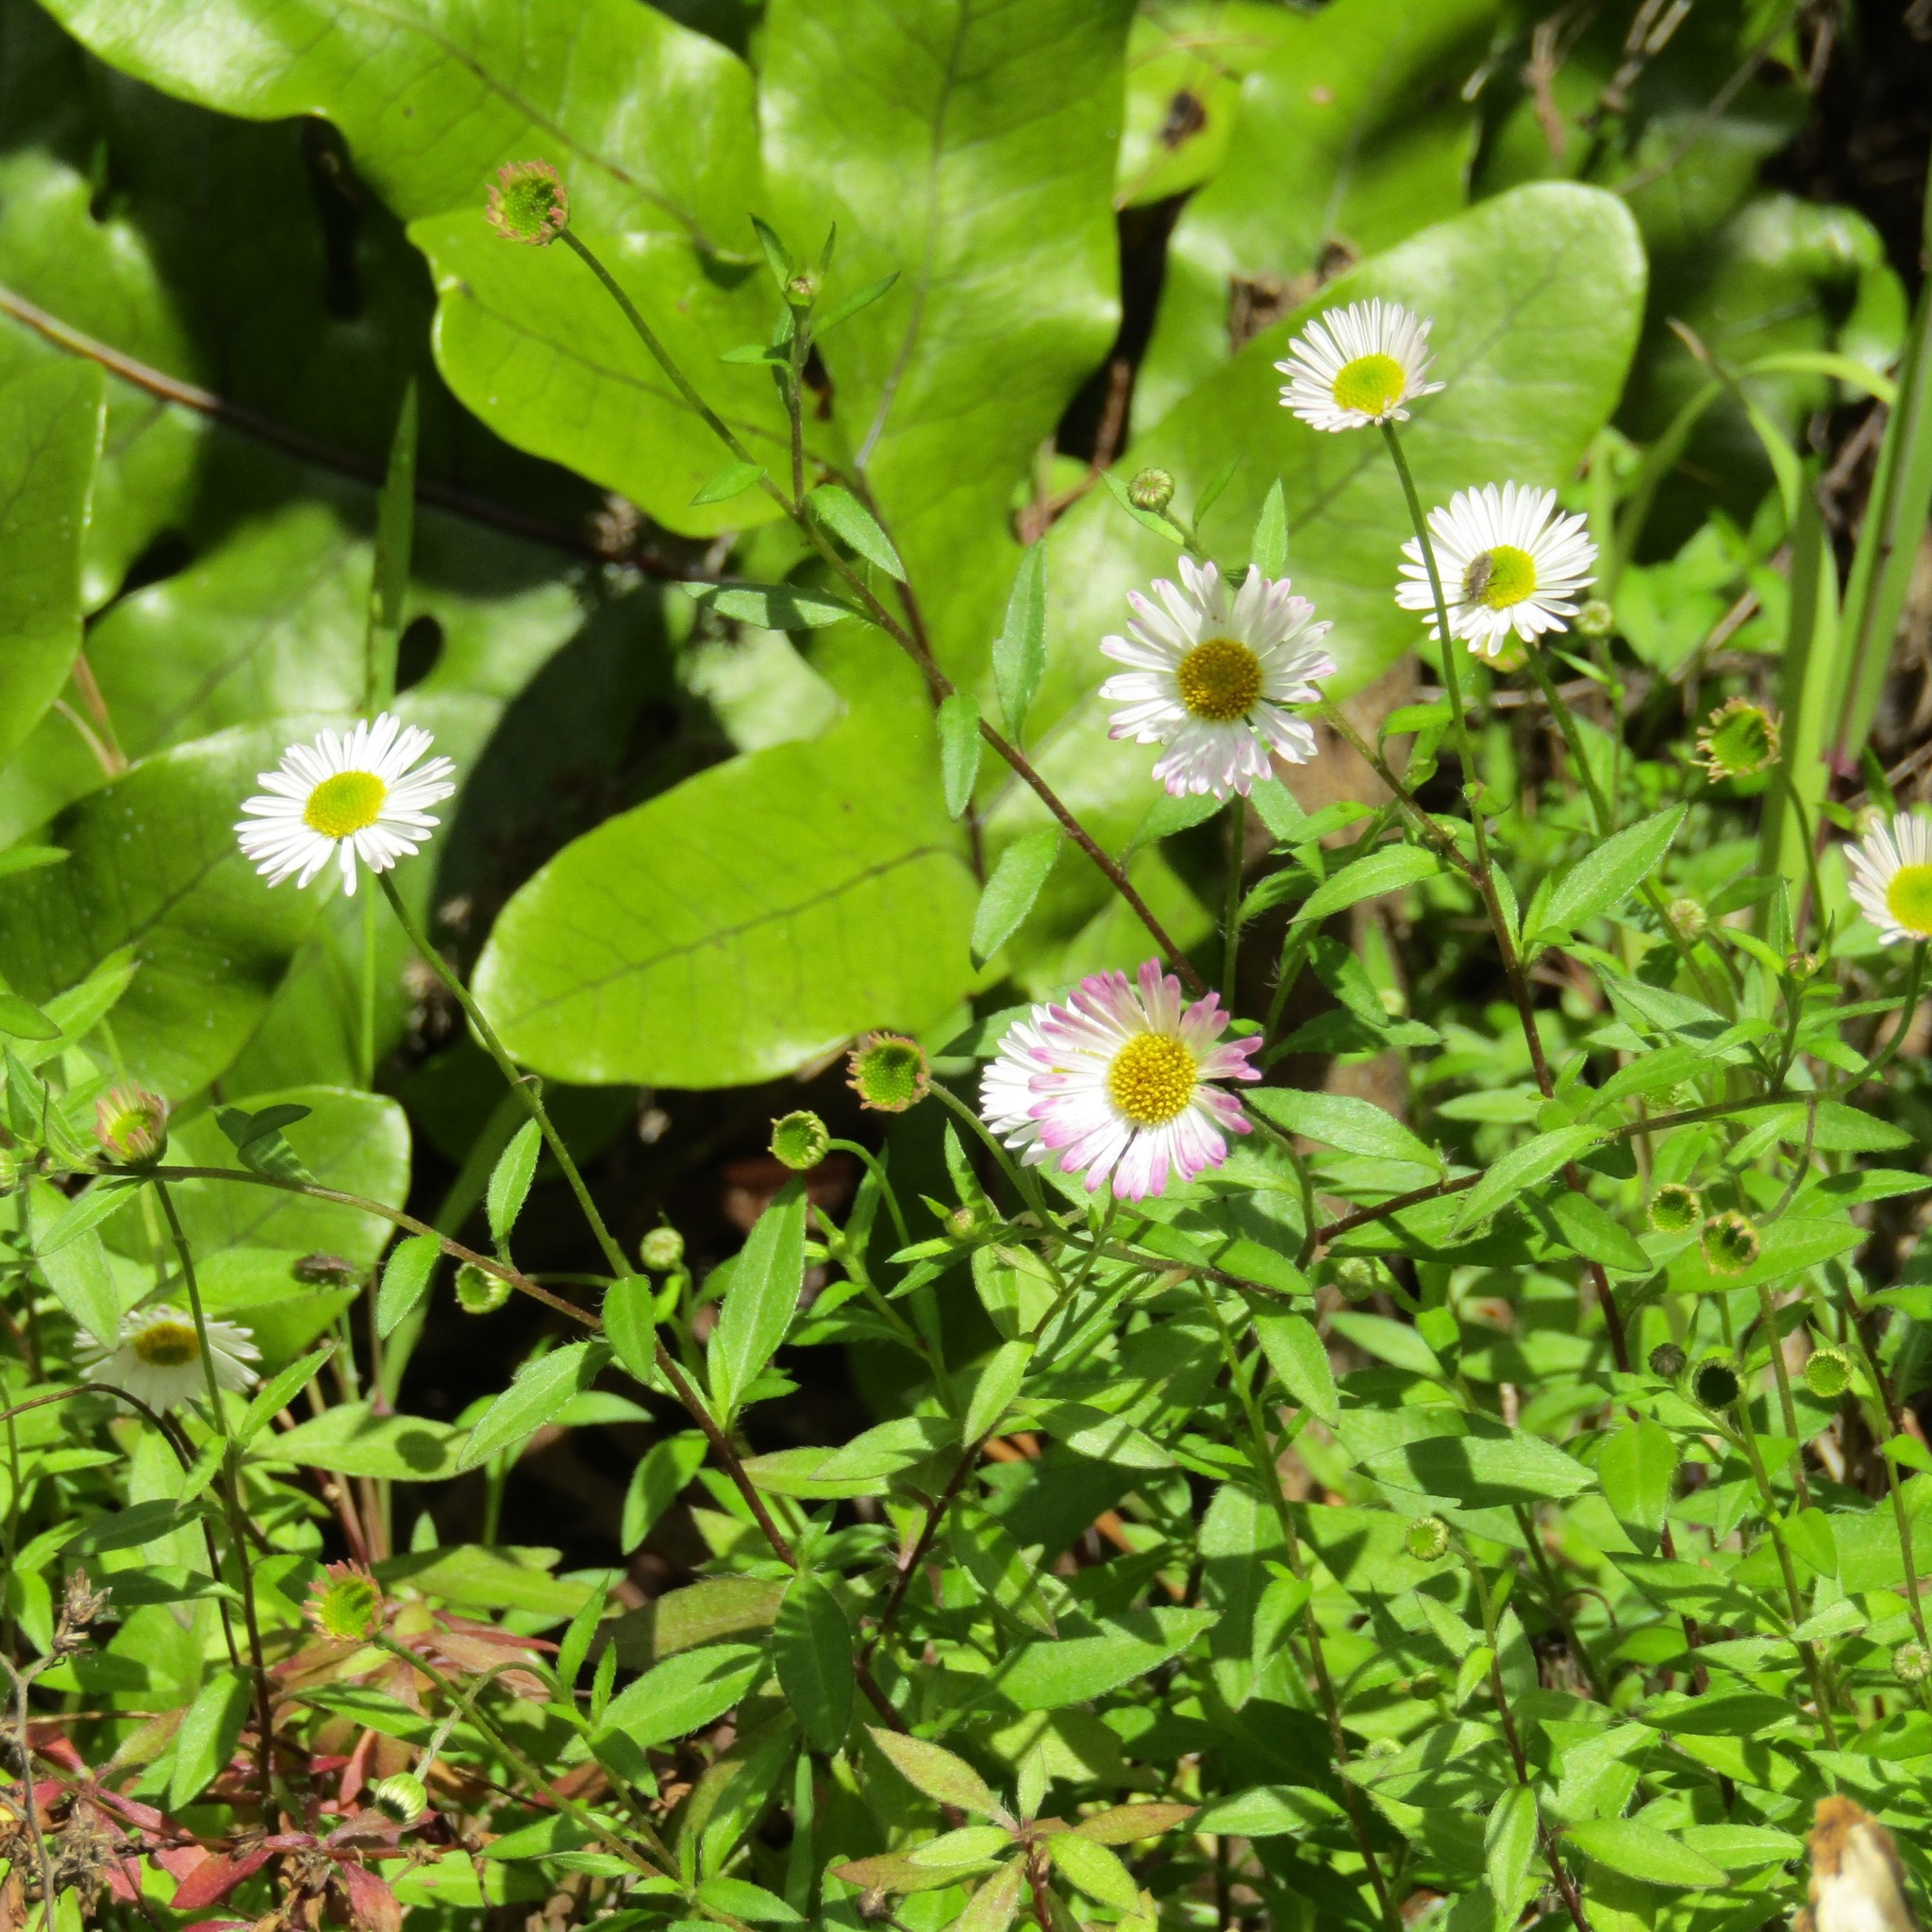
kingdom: Plantae
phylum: Tracheophyta
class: Magnoliopsida
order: Asterales
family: Asteraceae
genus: Erigeron
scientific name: Erigeron karvinskianus
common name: Mexican fleabane
